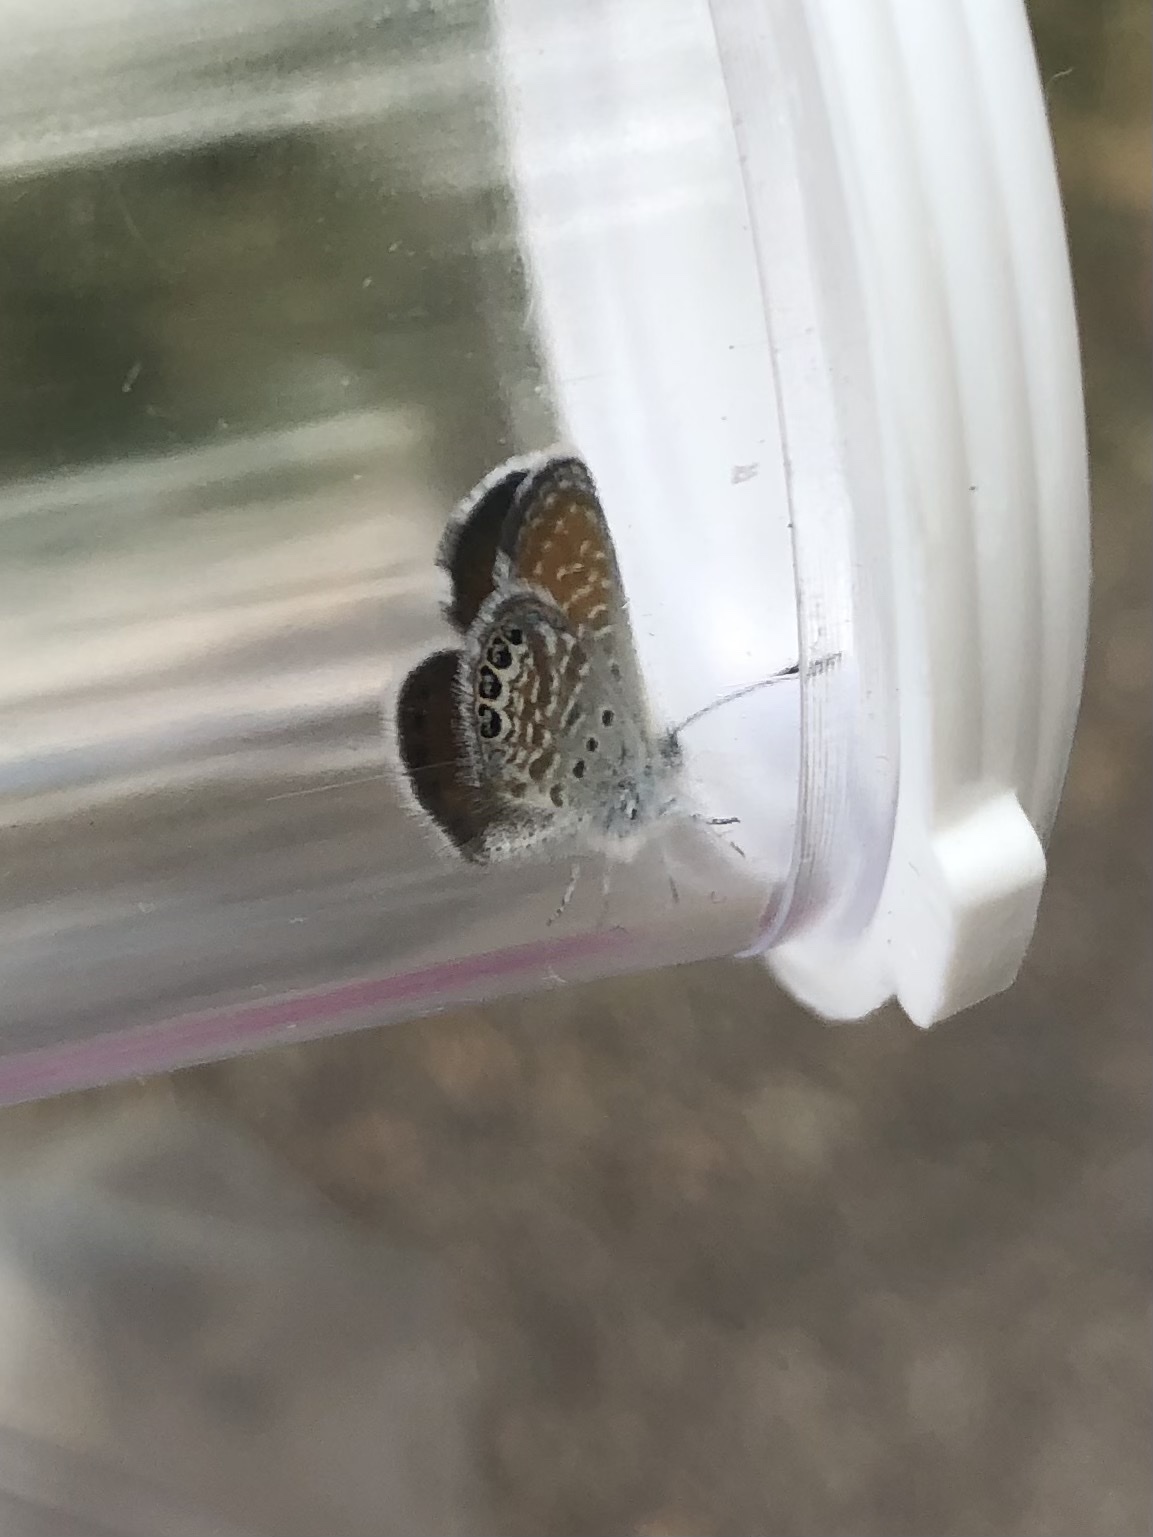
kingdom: Animalia
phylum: Arthropoda
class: Insecta
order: Lepidoptera
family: Lycaenidae
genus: Brephidium
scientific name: Brephidium exilis
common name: Pygmy blue
